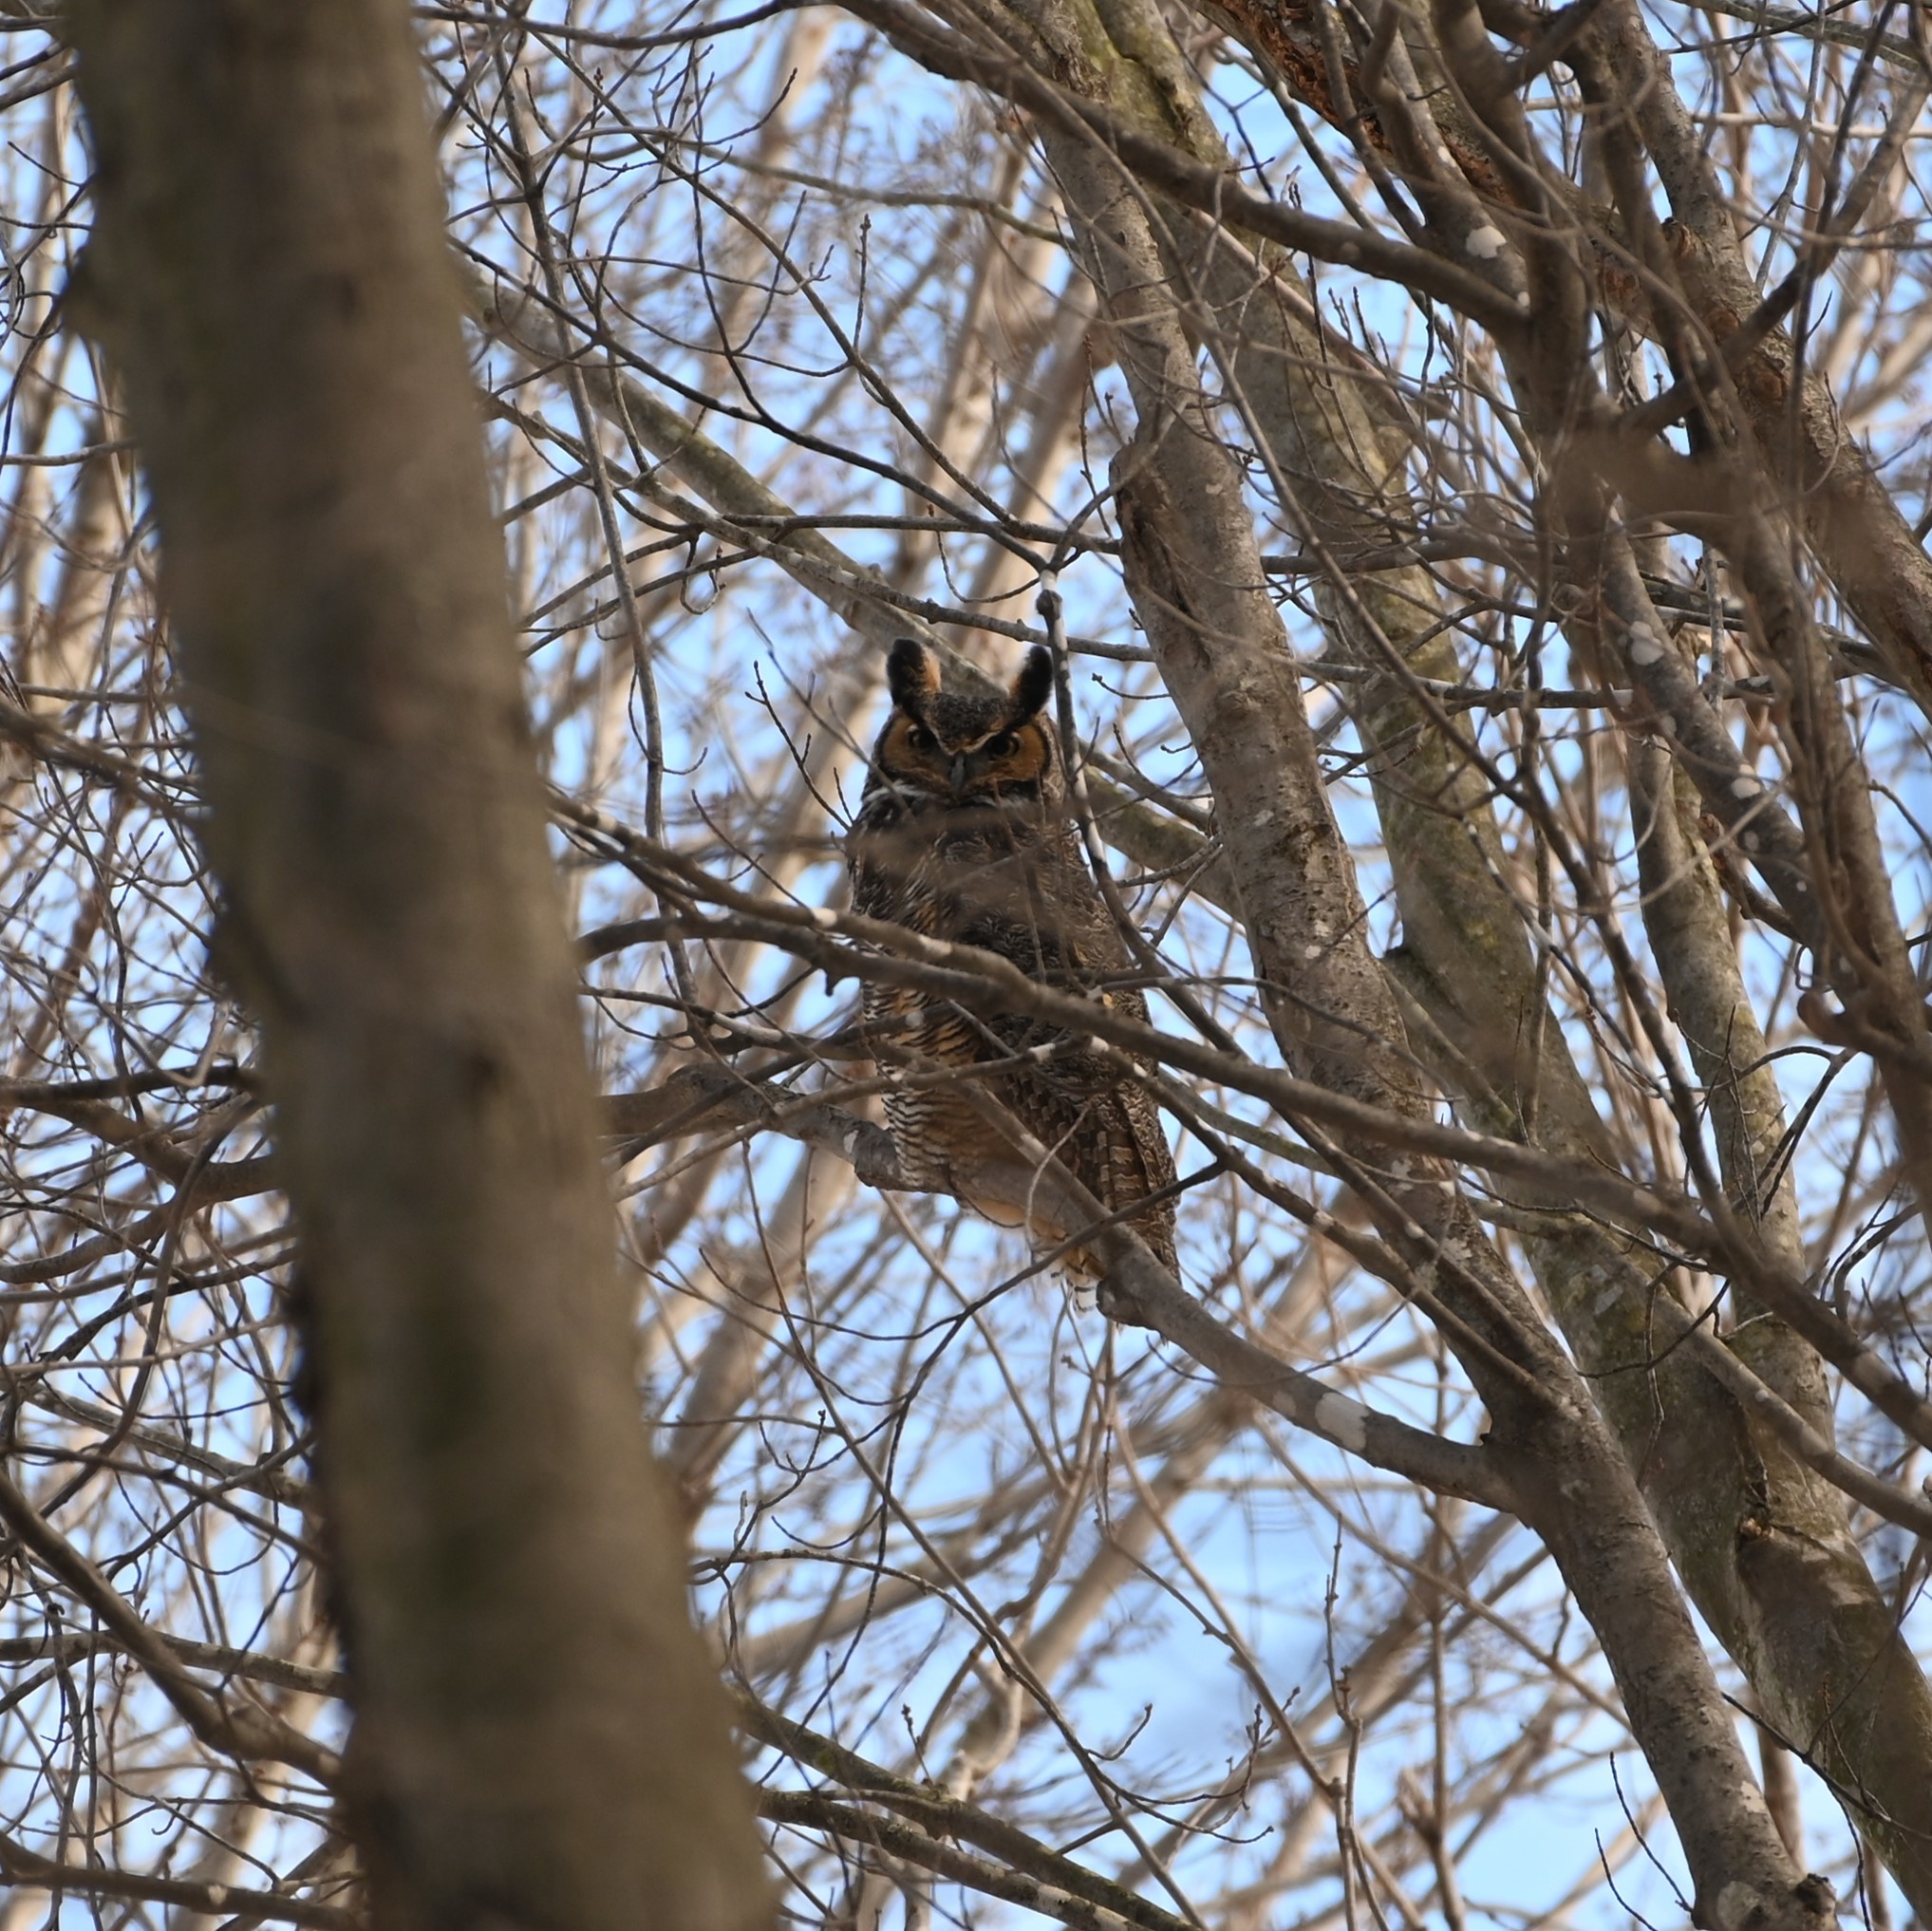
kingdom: Animalia
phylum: Chordata
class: Aves
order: Strigiformes
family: Strigidae
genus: Bubo
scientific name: Bubo virginianus
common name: Great horned owl
